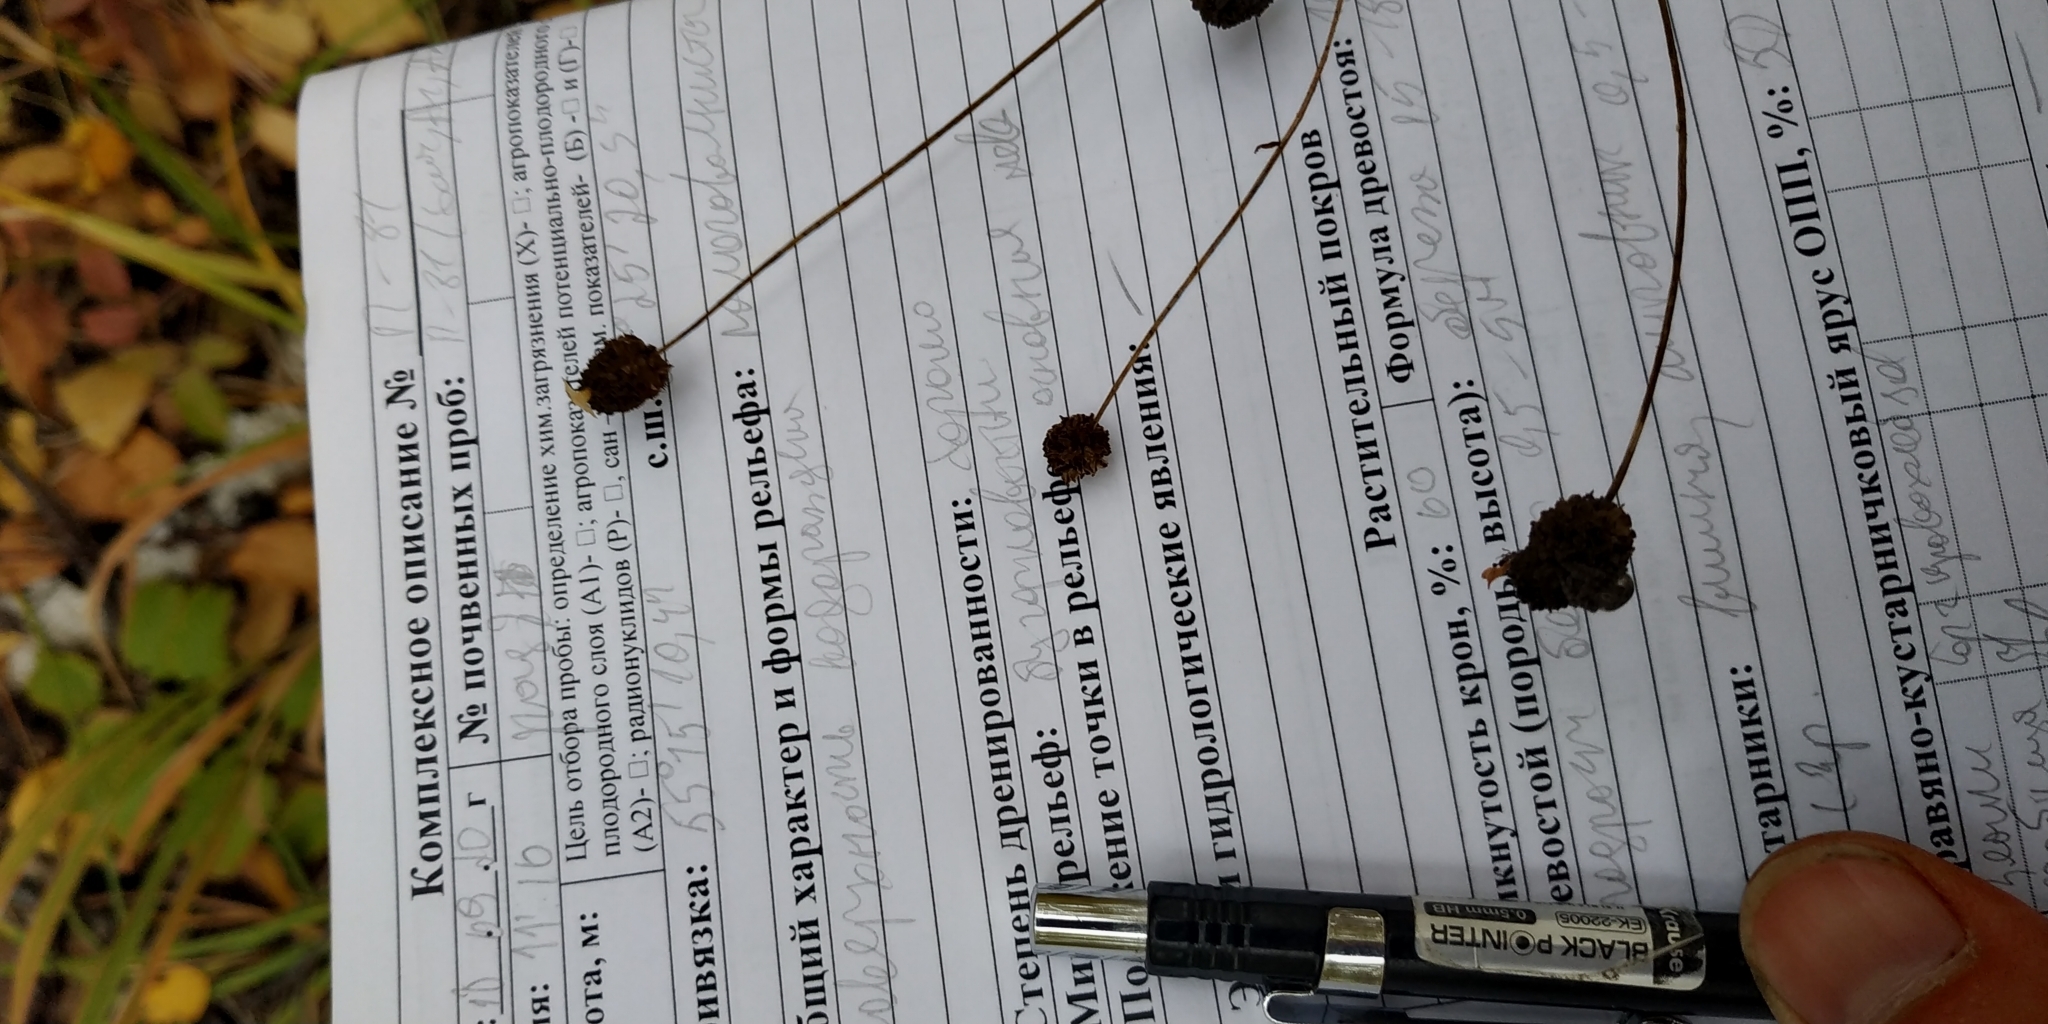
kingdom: Plantae
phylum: Tracheophyta
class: Magnoliopsida
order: Rosales
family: Rosaceae
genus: Sanguisorba
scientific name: Sanguisorba officinalis
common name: Great burnet
